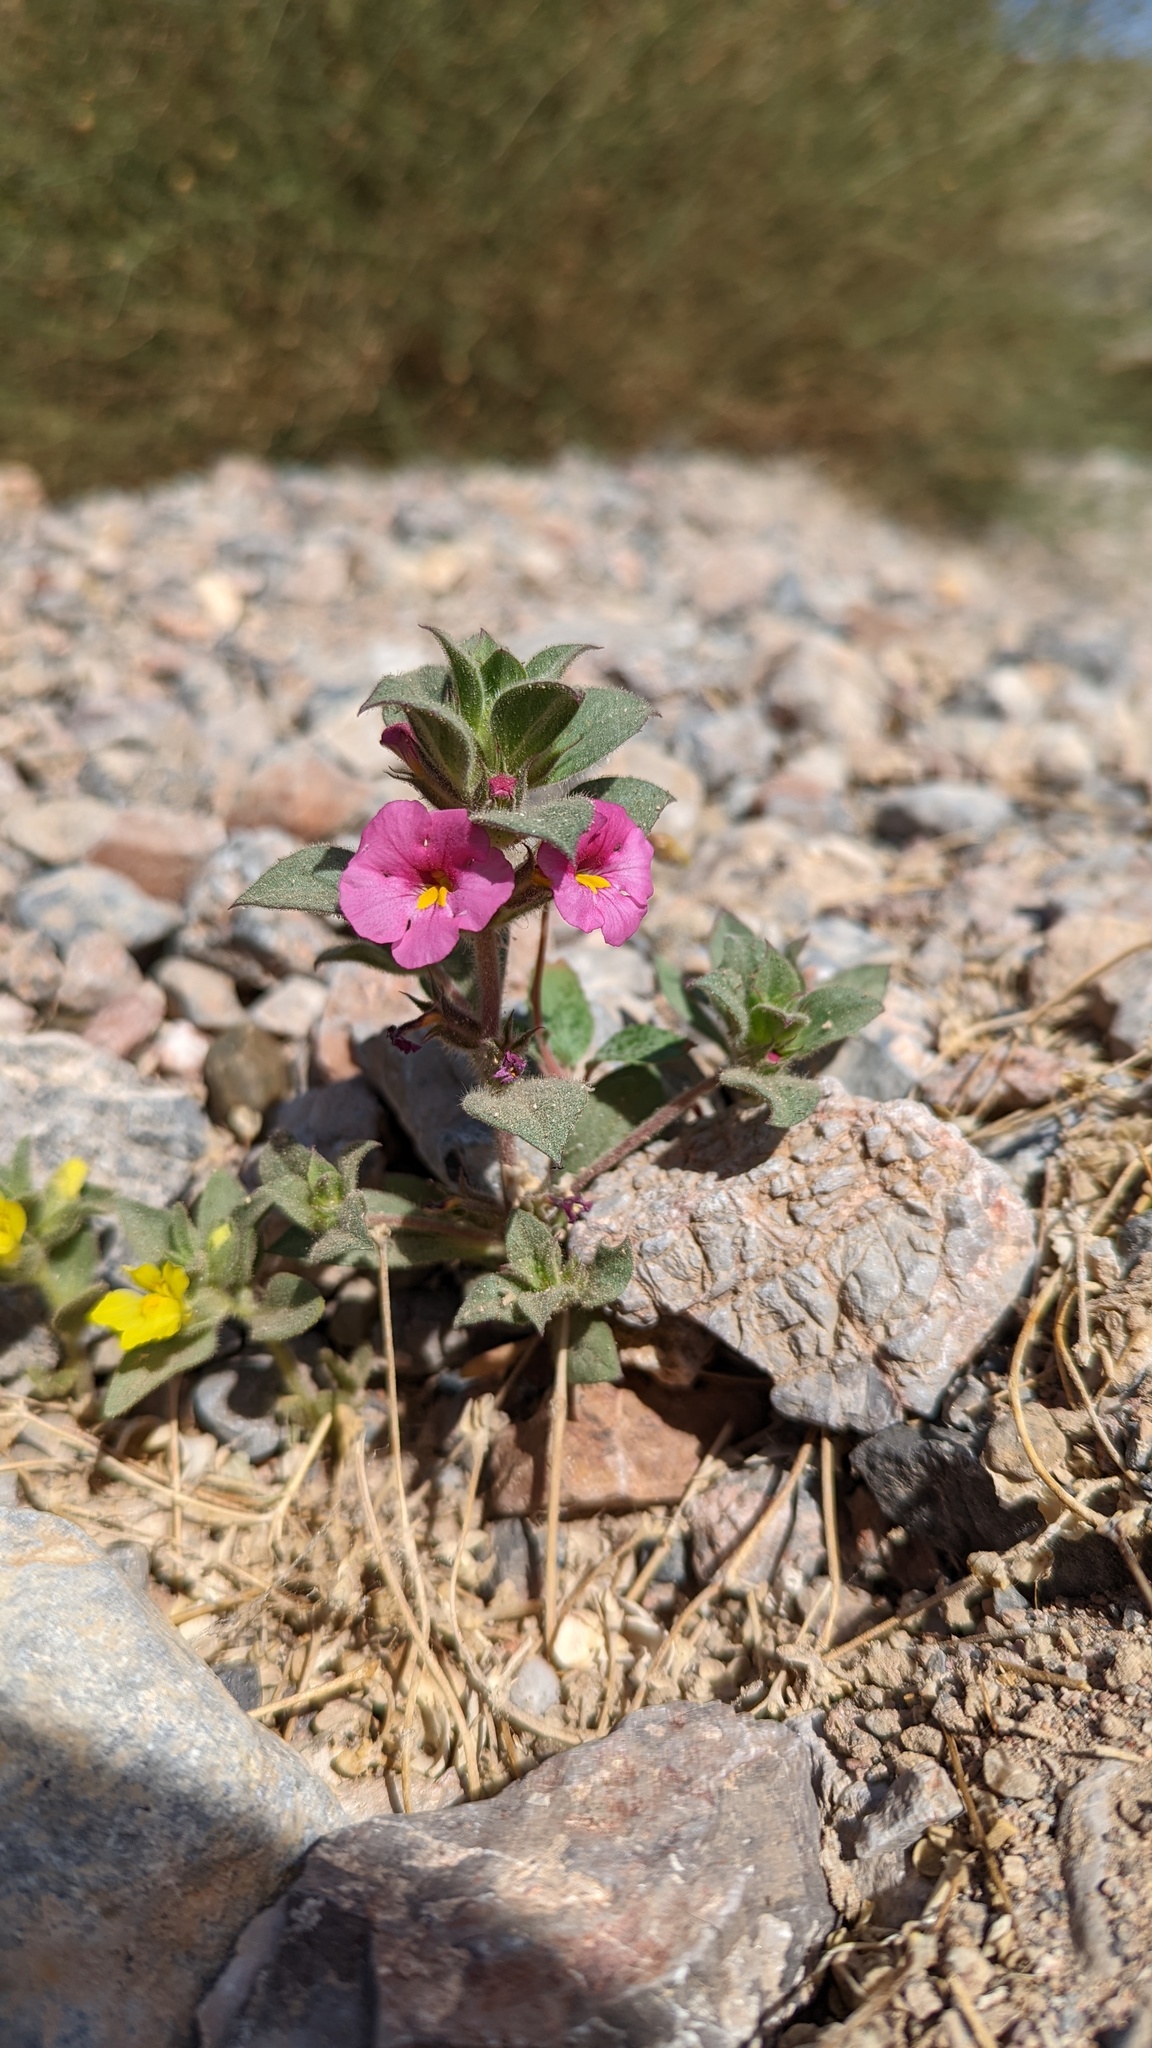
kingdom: Plantae
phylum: Tracheophyta
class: Magnoliopsida
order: Lamiales
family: Phrymaceae
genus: Diplacus
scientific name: Diplacus bigelovii
